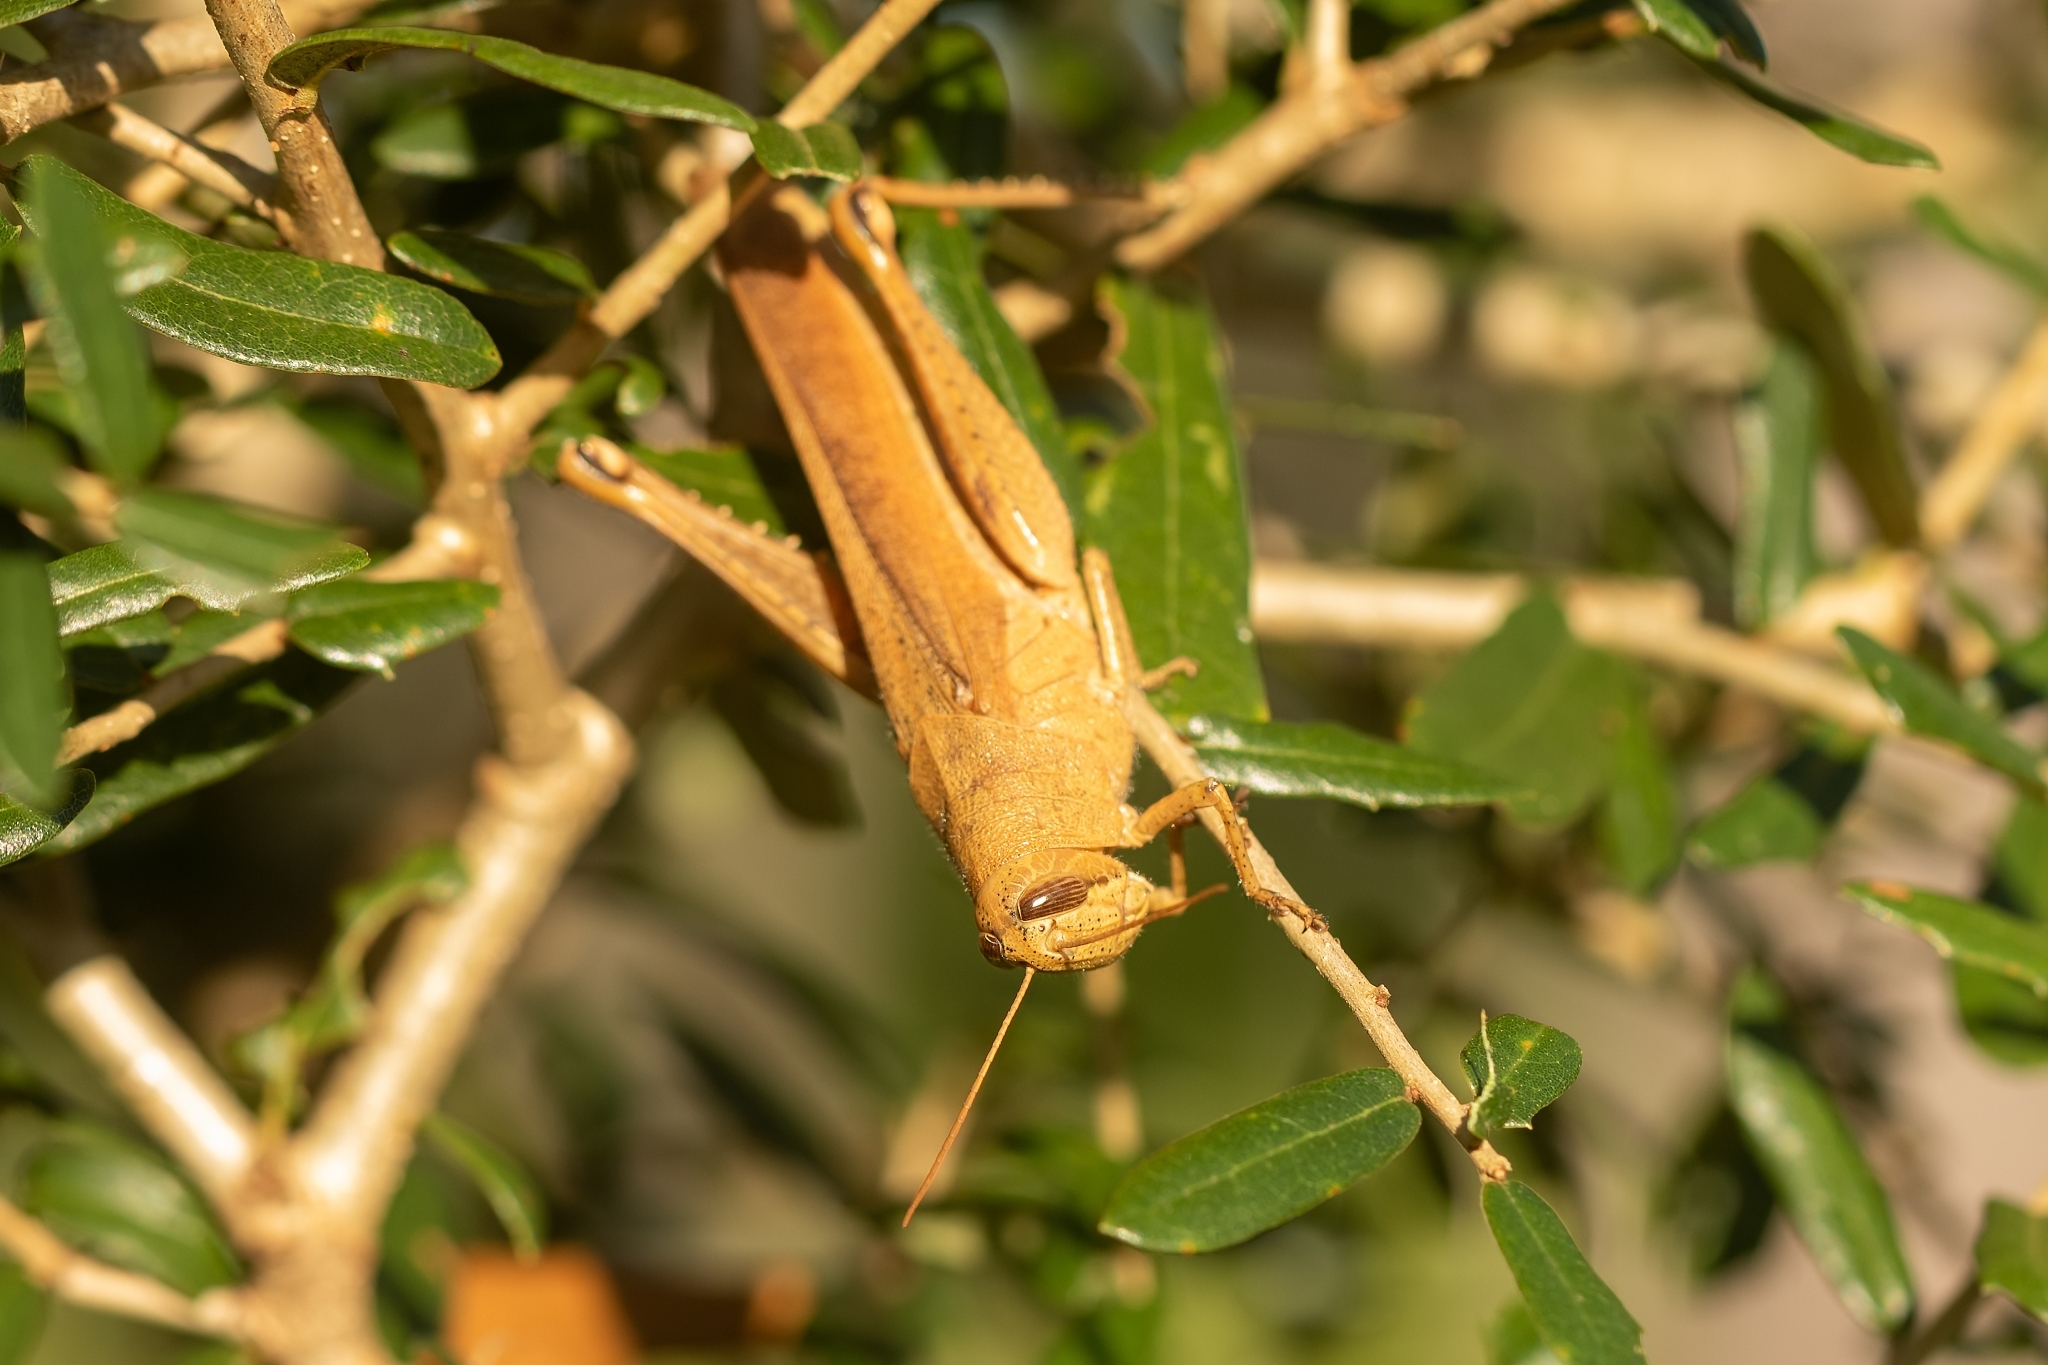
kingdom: Animalia
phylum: Arthropoda
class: Insecta
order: Orthoptera
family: Acrididae
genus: Schistocerca
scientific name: Schistocerca rubiginosa
